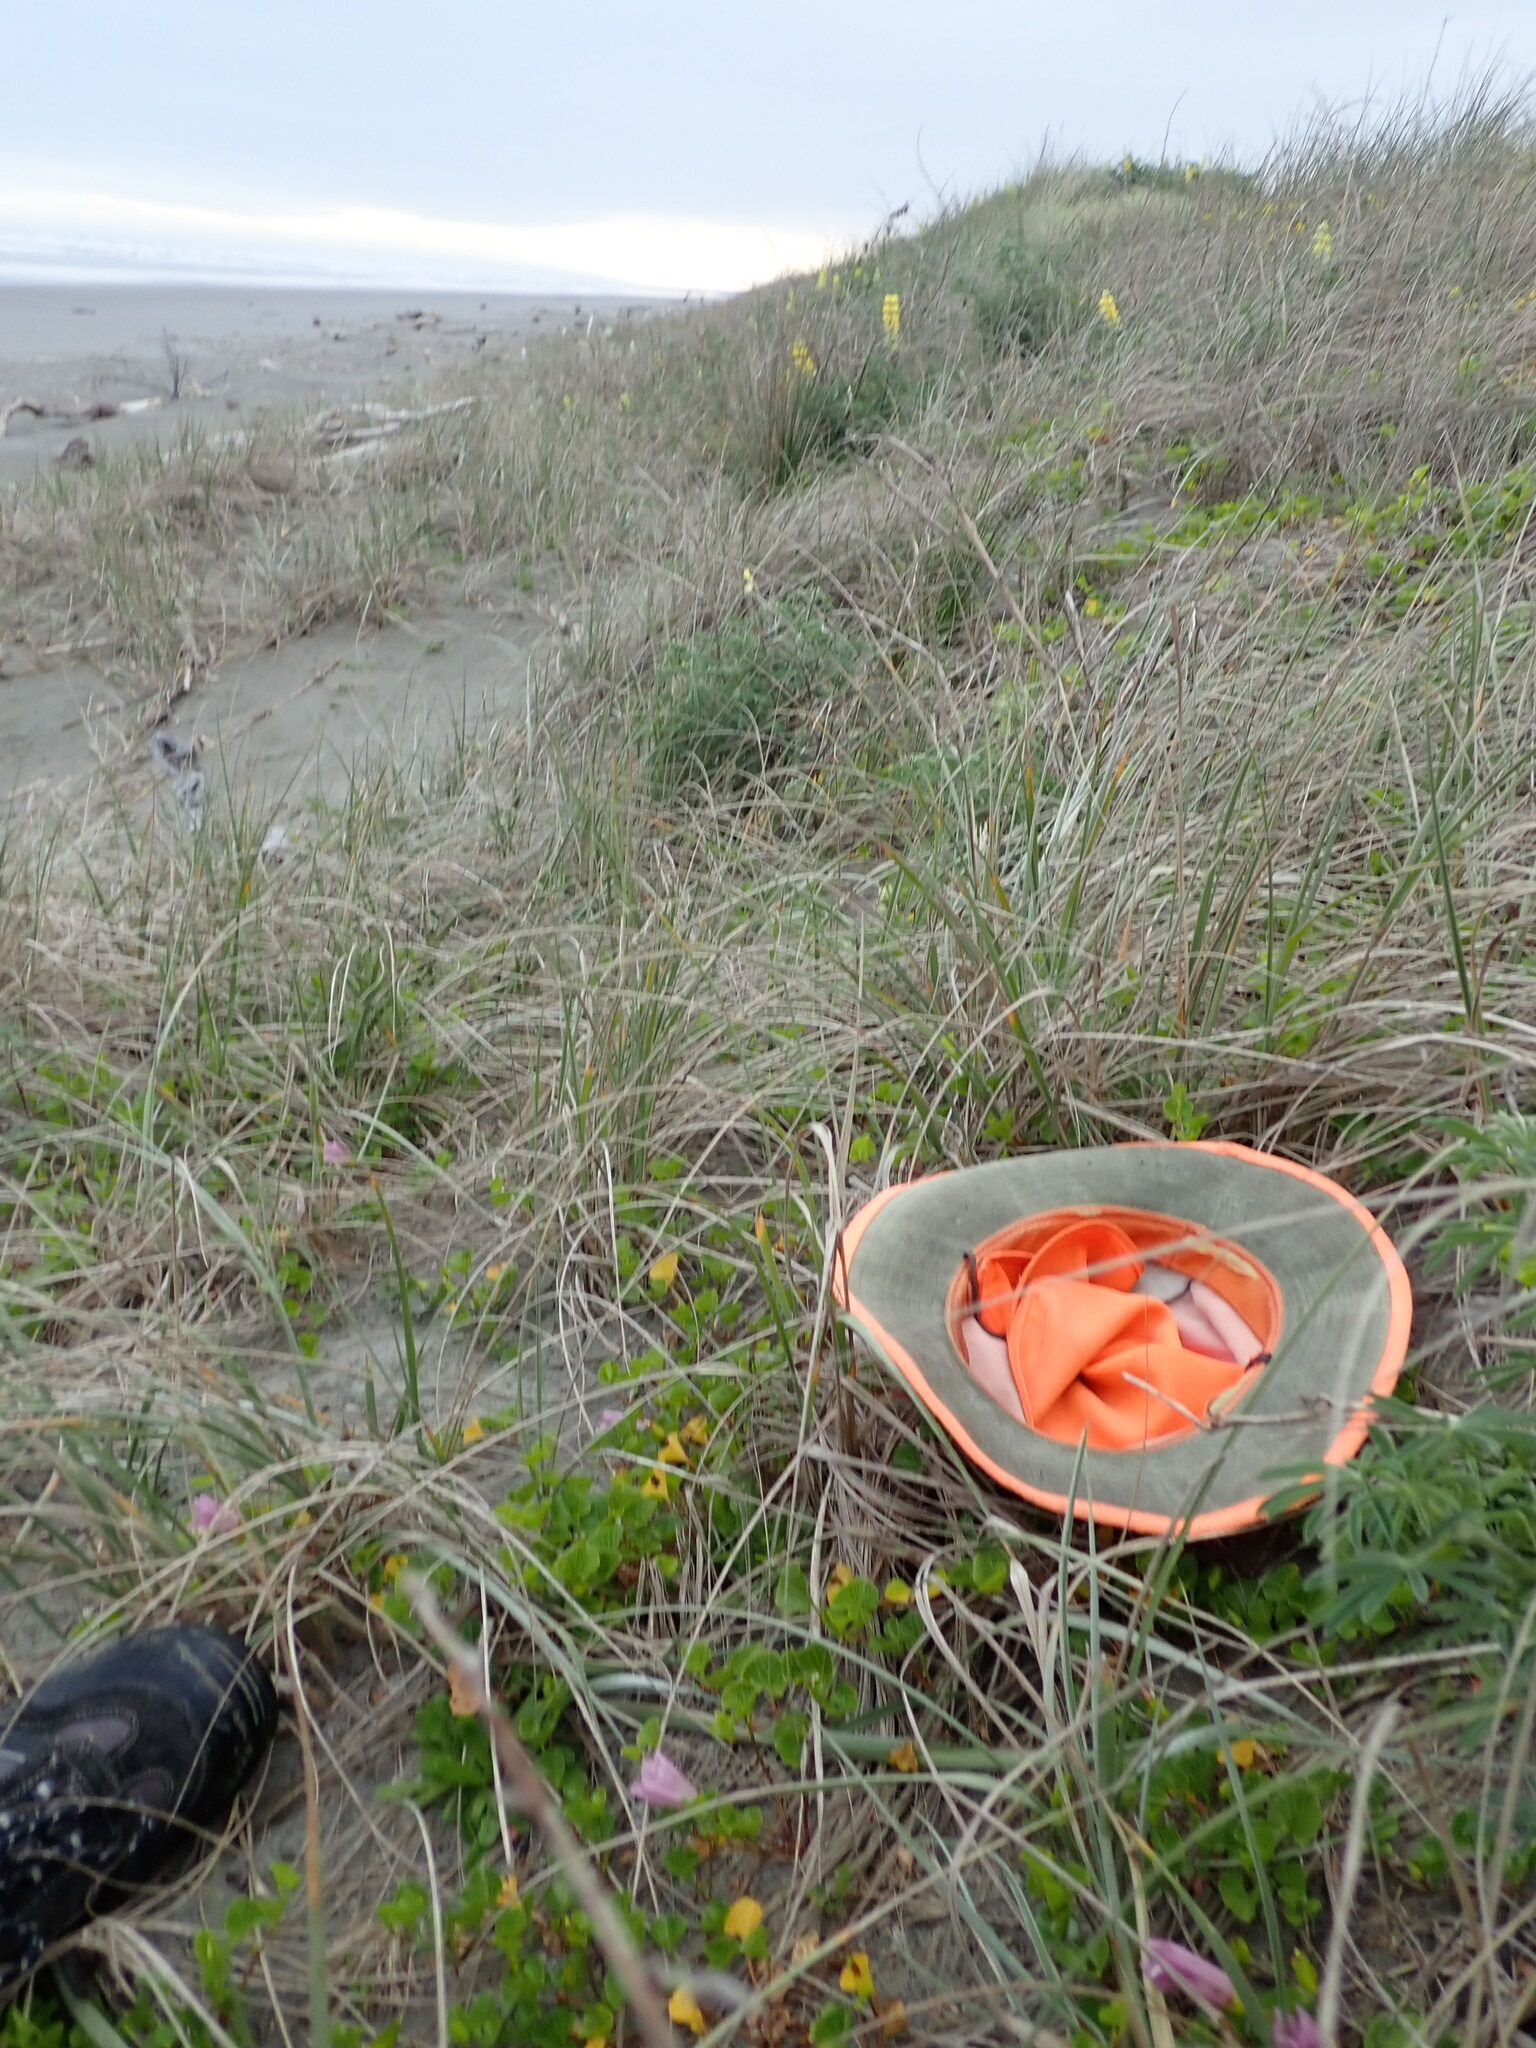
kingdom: Plantae
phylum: Tracheophyta
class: Magnoliopsida
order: Solanales
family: Convolvulaceae
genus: Calystegia
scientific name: Calystegia soldanella
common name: Sea bindweed
